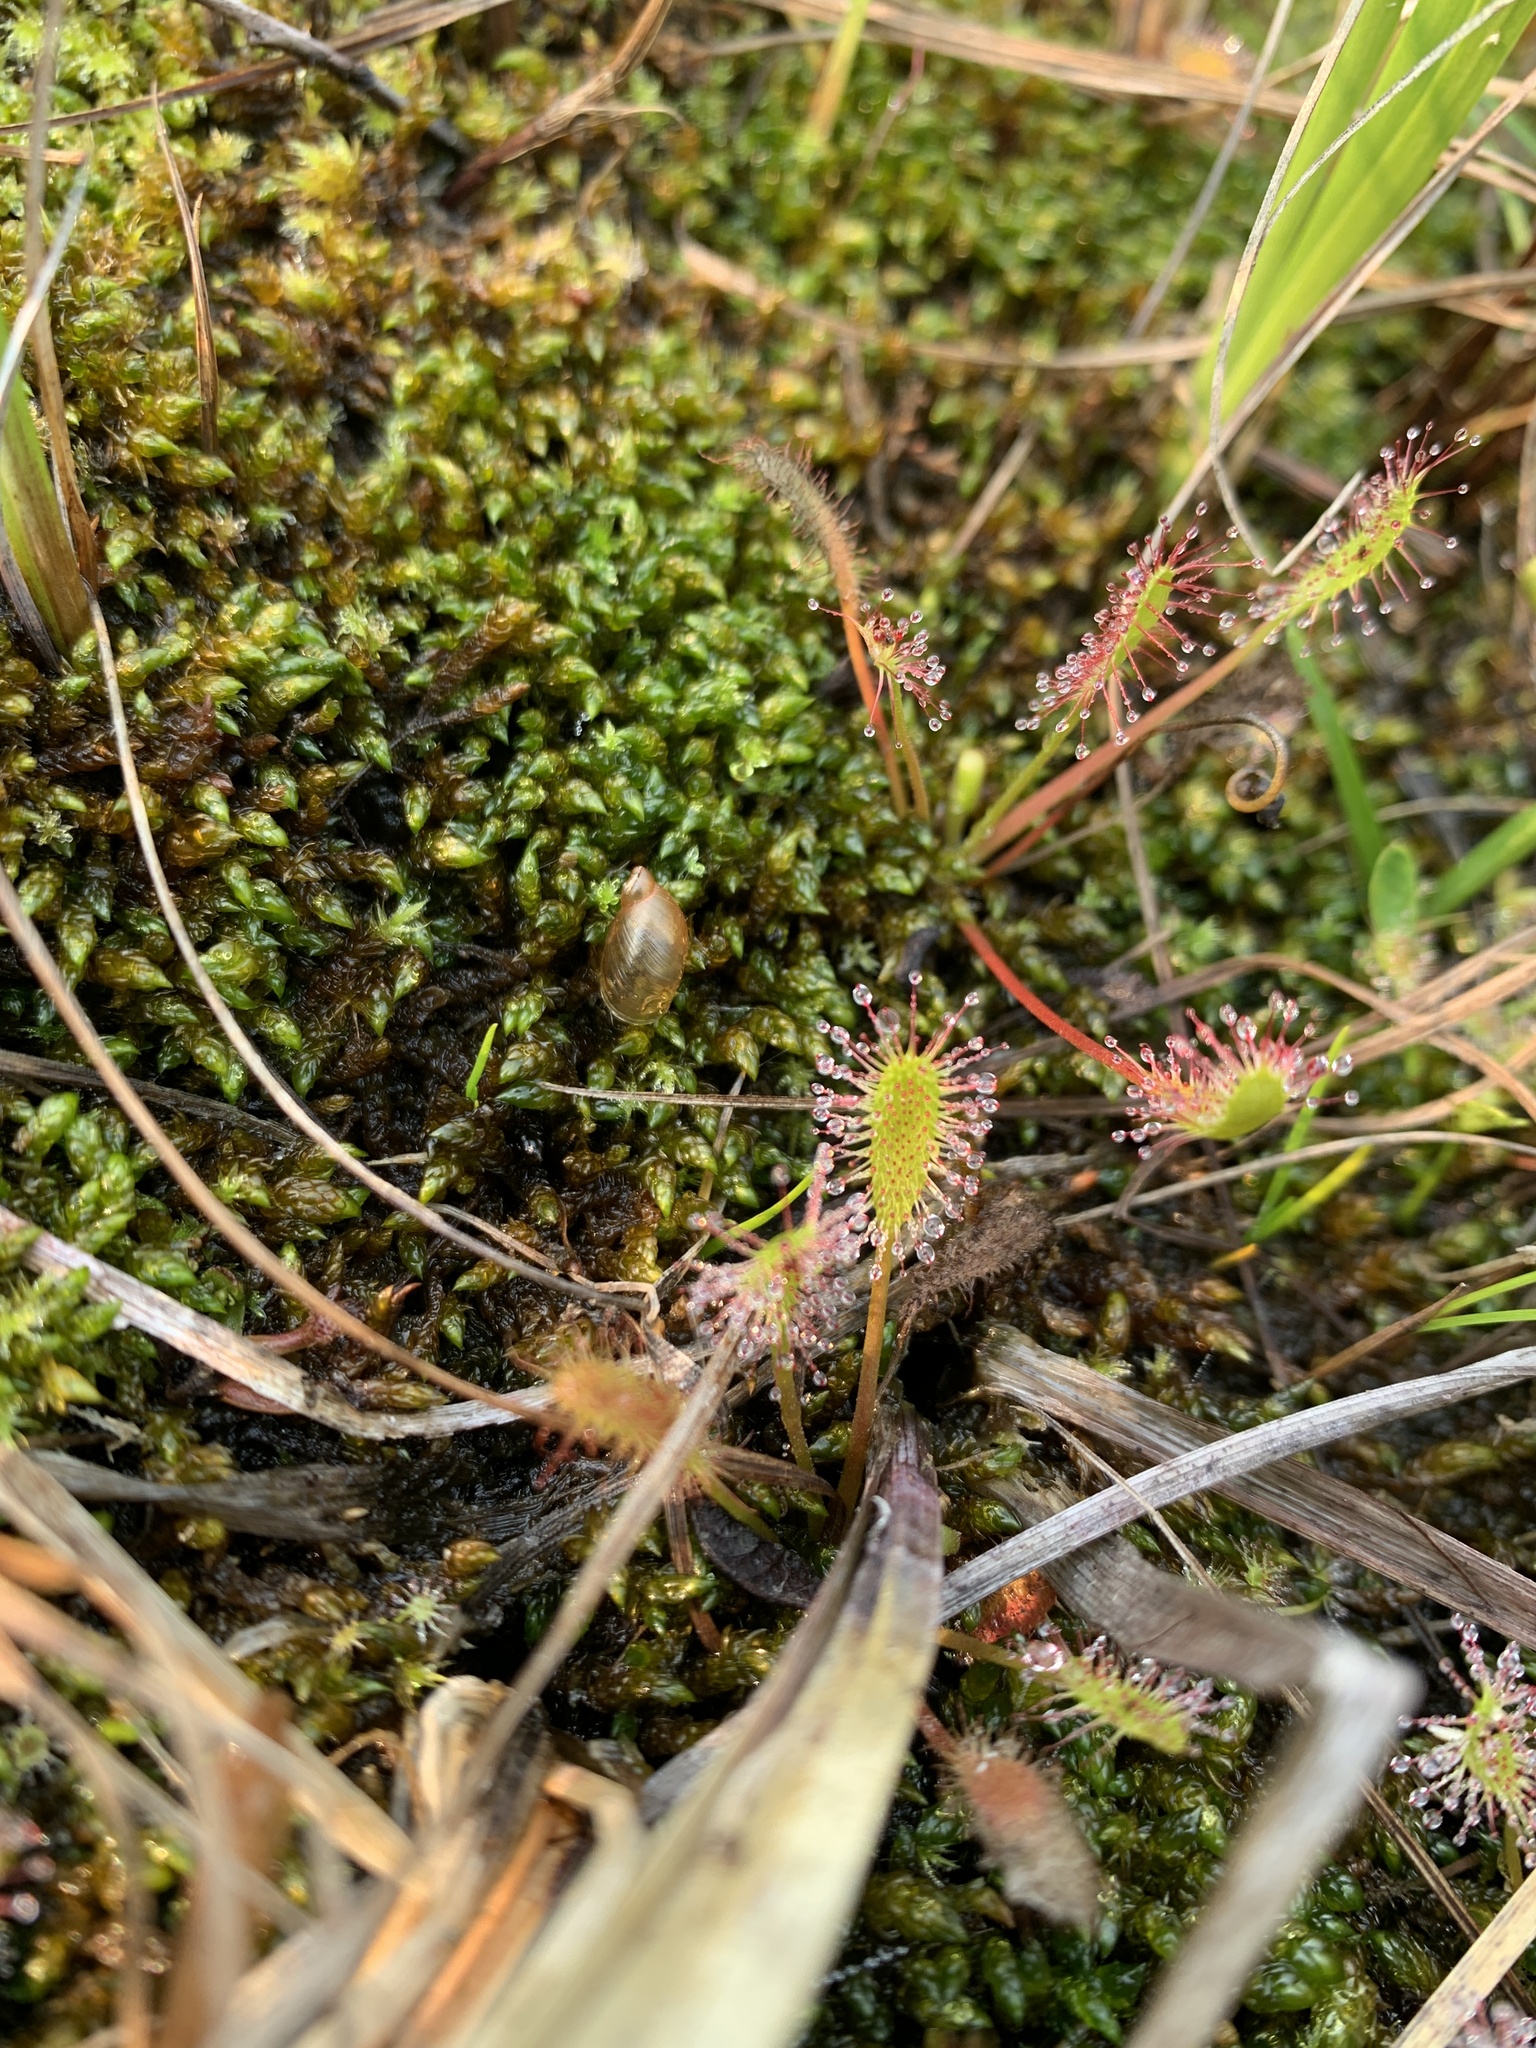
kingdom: Plantae
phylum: Tracheophyta
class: Magnoliopsida
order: Caryophyllales
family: Droseraceae
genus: Drosera
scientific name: Drosera anglica
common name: Great sundew
